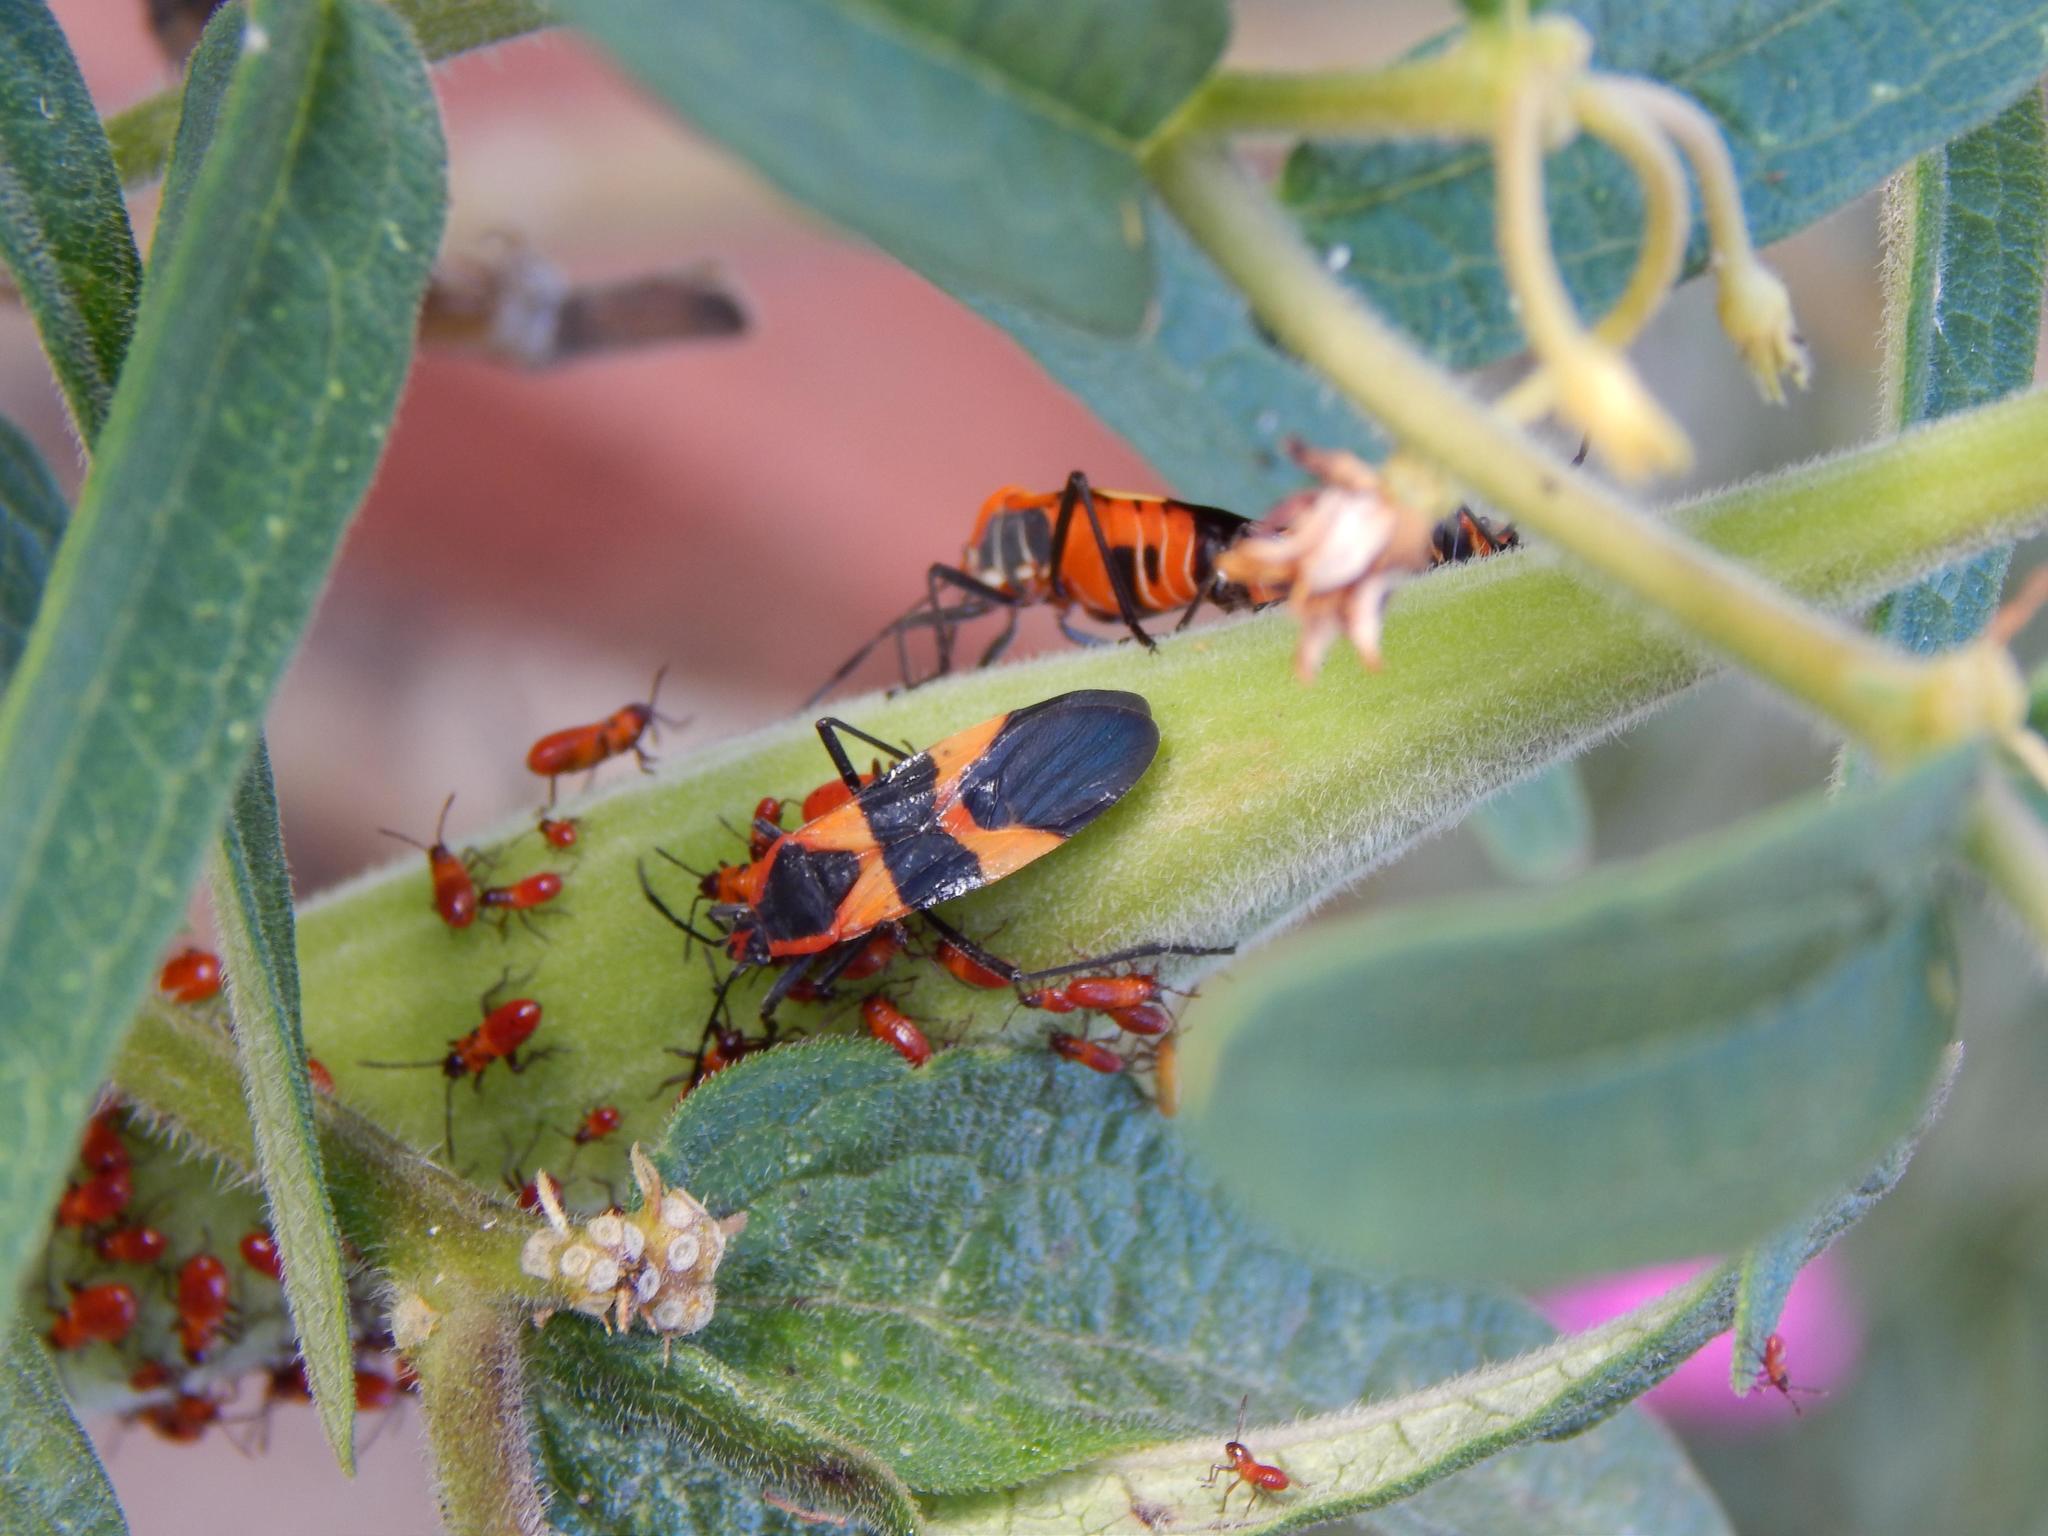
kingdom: Animalia
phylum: Arthropoda
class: Insecta
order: Hemiptera
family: Lygaeidae
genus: Oncopeltus
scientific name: Oncopeltus fasciatus
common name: Large milkweed bug
